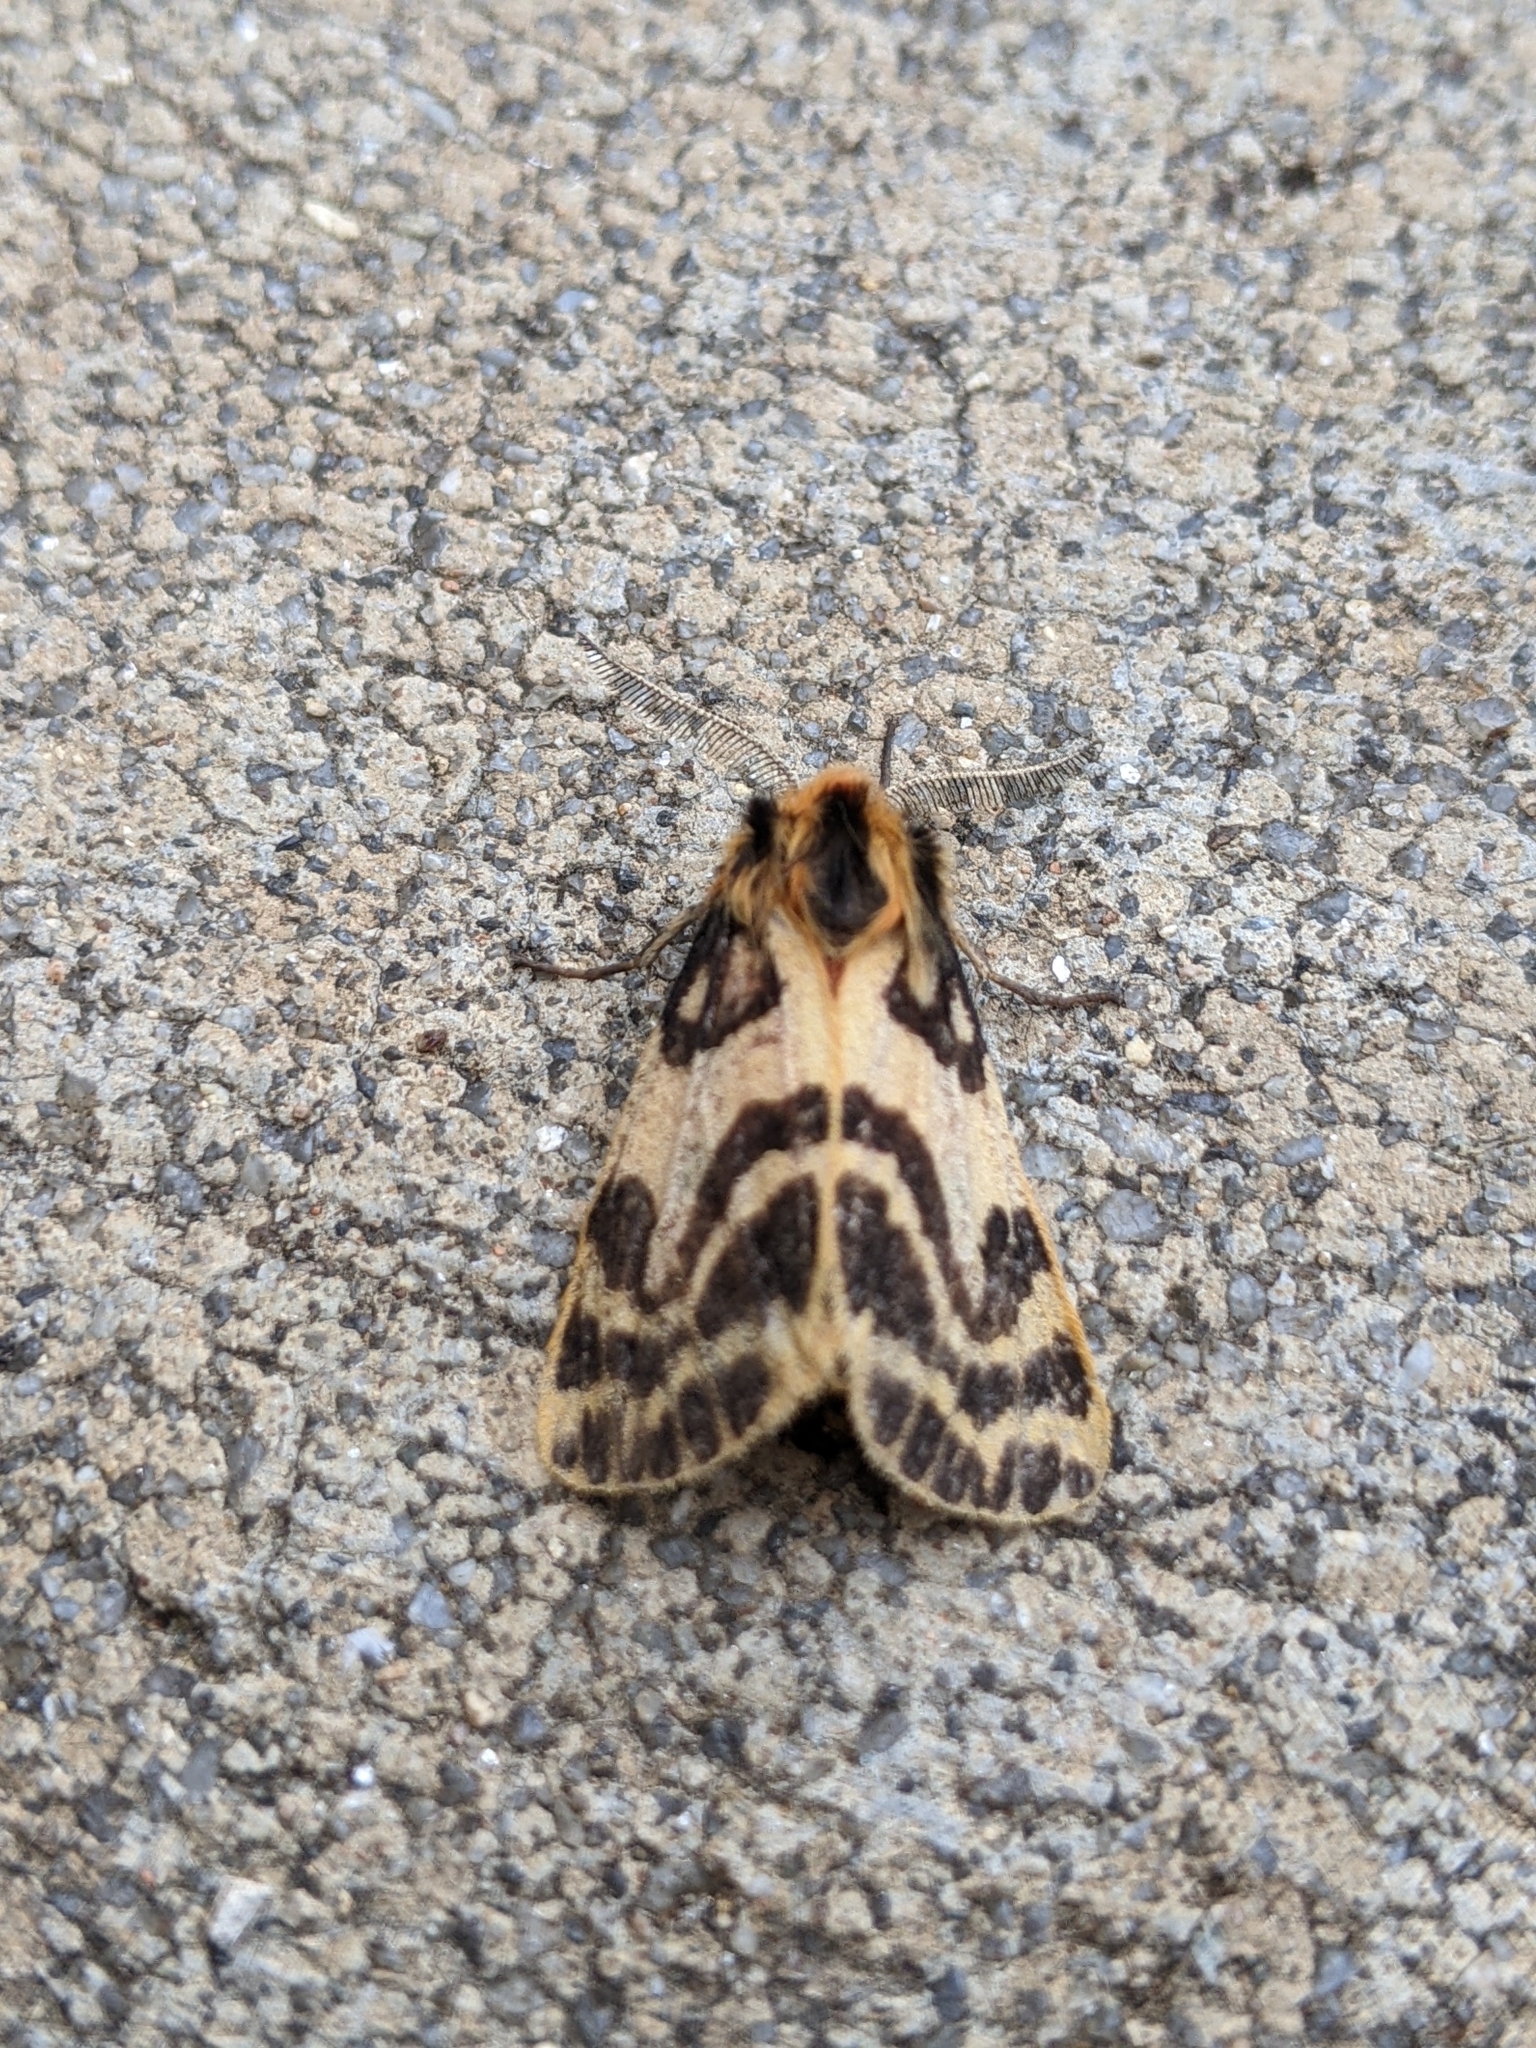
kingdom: Animalia
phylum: Arthropoda
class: Insecta
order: Lepidoptera
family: Erebidae
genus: Ardices
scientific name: Ardices curvata
